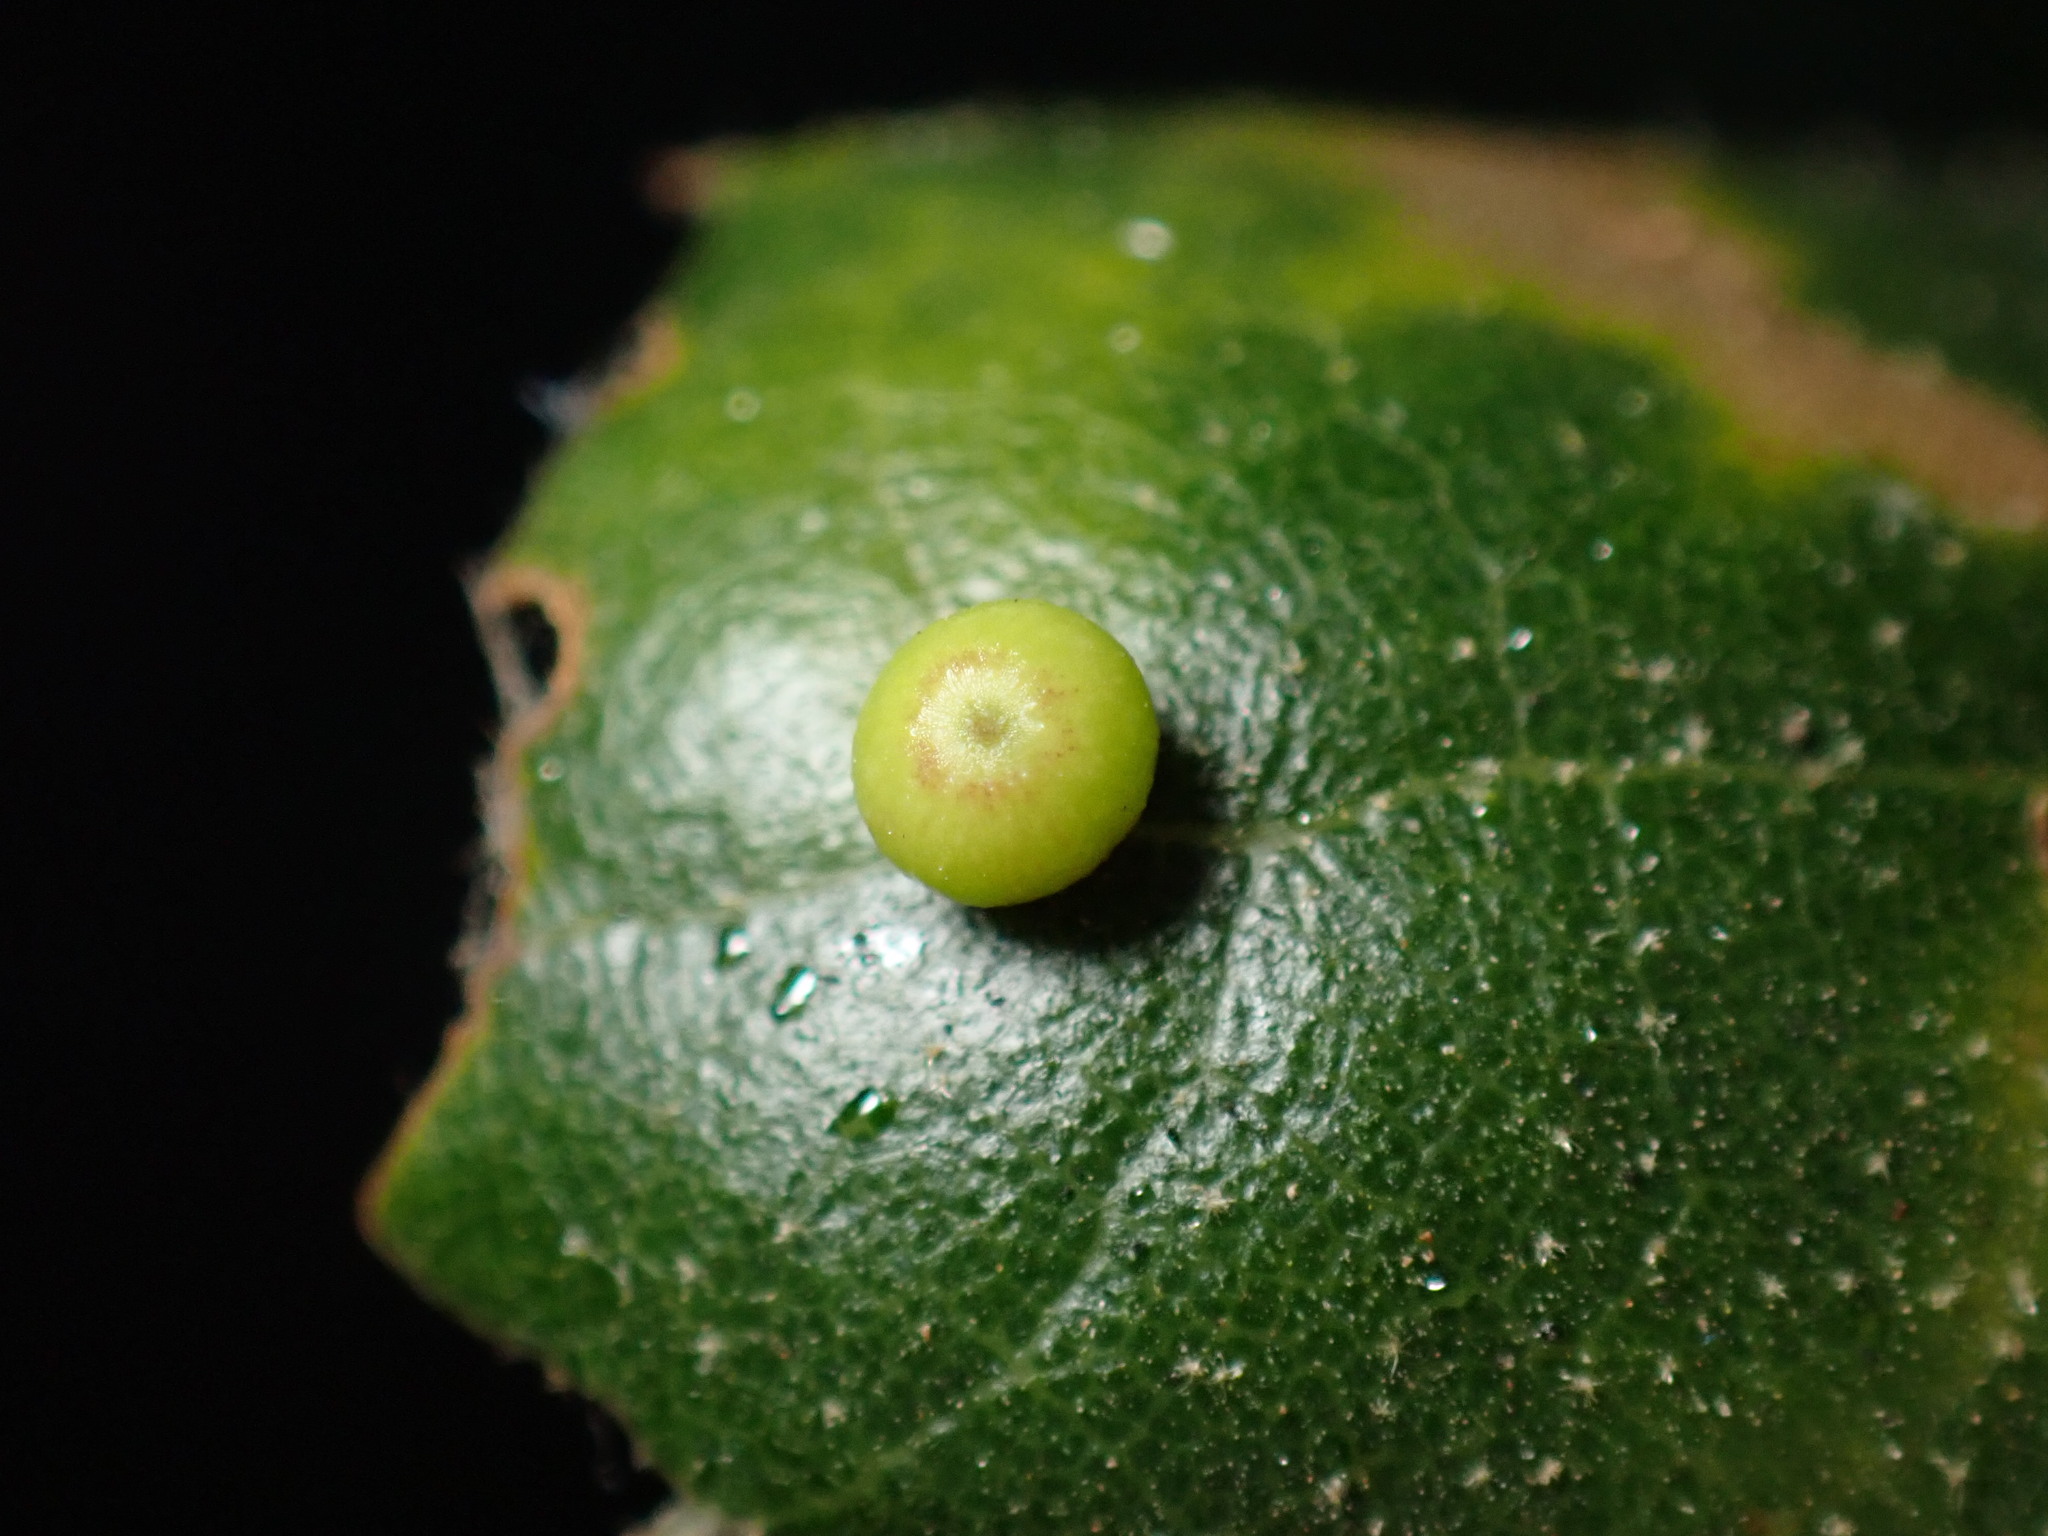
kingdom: Animalia
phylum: Arthropoda
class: Insecta
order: Hymenoptera
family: Cynipidae
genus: Dryocosmus
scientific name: Dryocosmus
